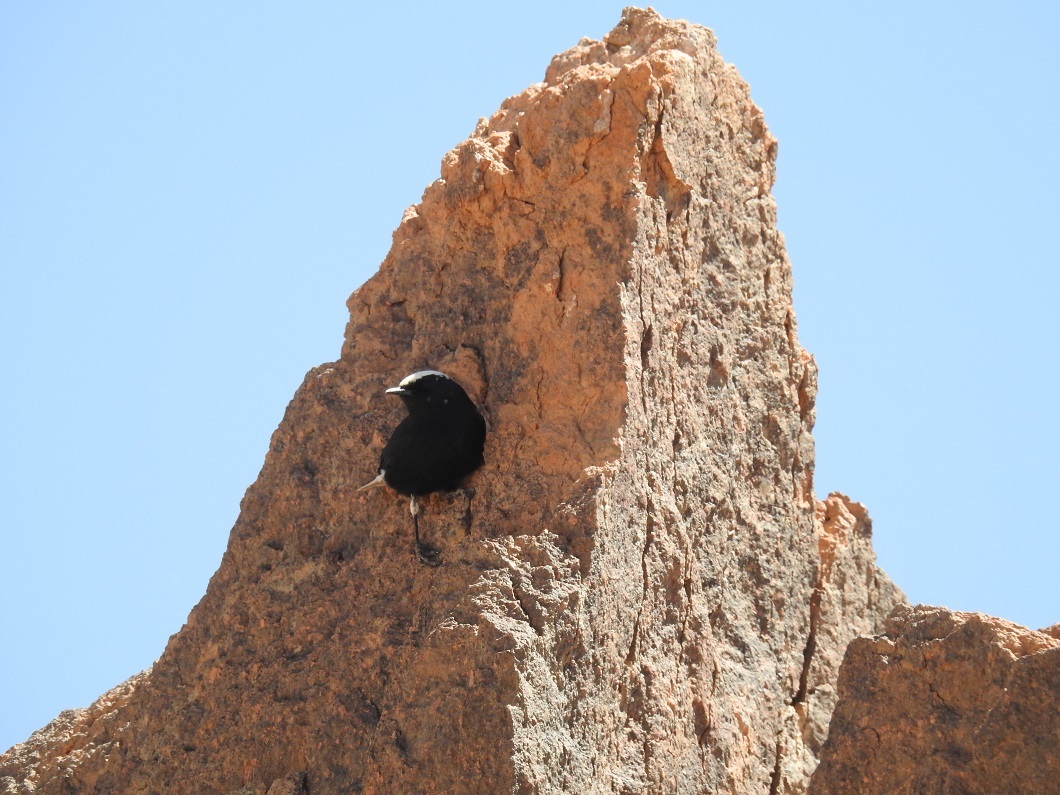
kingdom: Animalia
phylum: Chordata
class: Aves
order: Passeriformes
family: Muscicapidae
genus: Oenanthe
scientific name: Oenanthe leucopyga
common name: White-crowned wheatear
